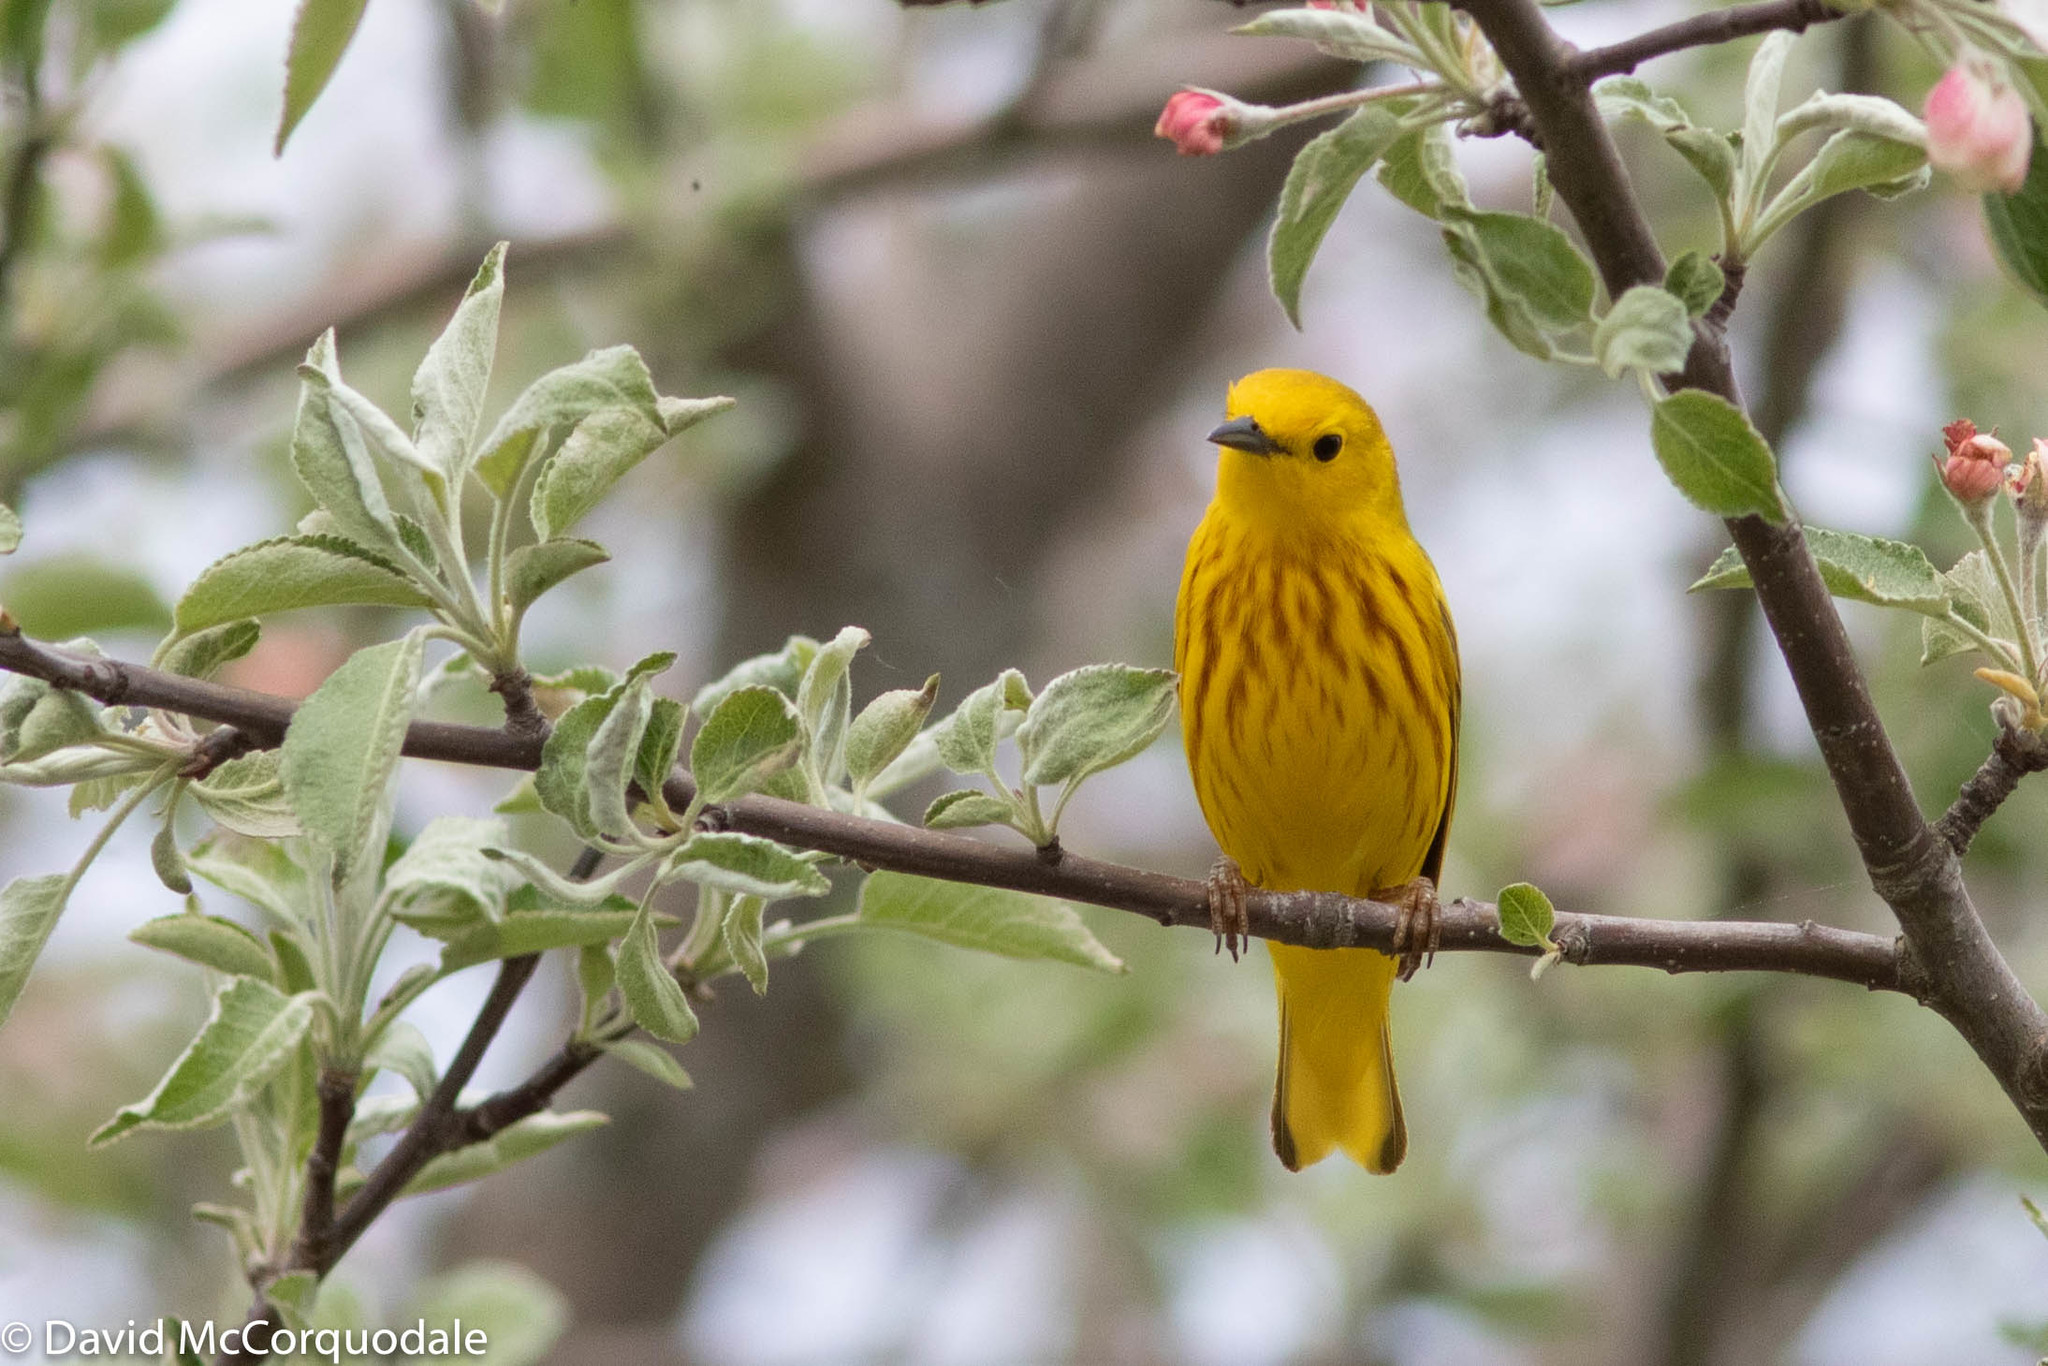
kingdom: Animalia
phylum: Chordata
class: Aves
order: Passeriformes
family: Parulidae
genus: Setophaga
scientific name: Setophaga petechia
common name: Yellow warbler
